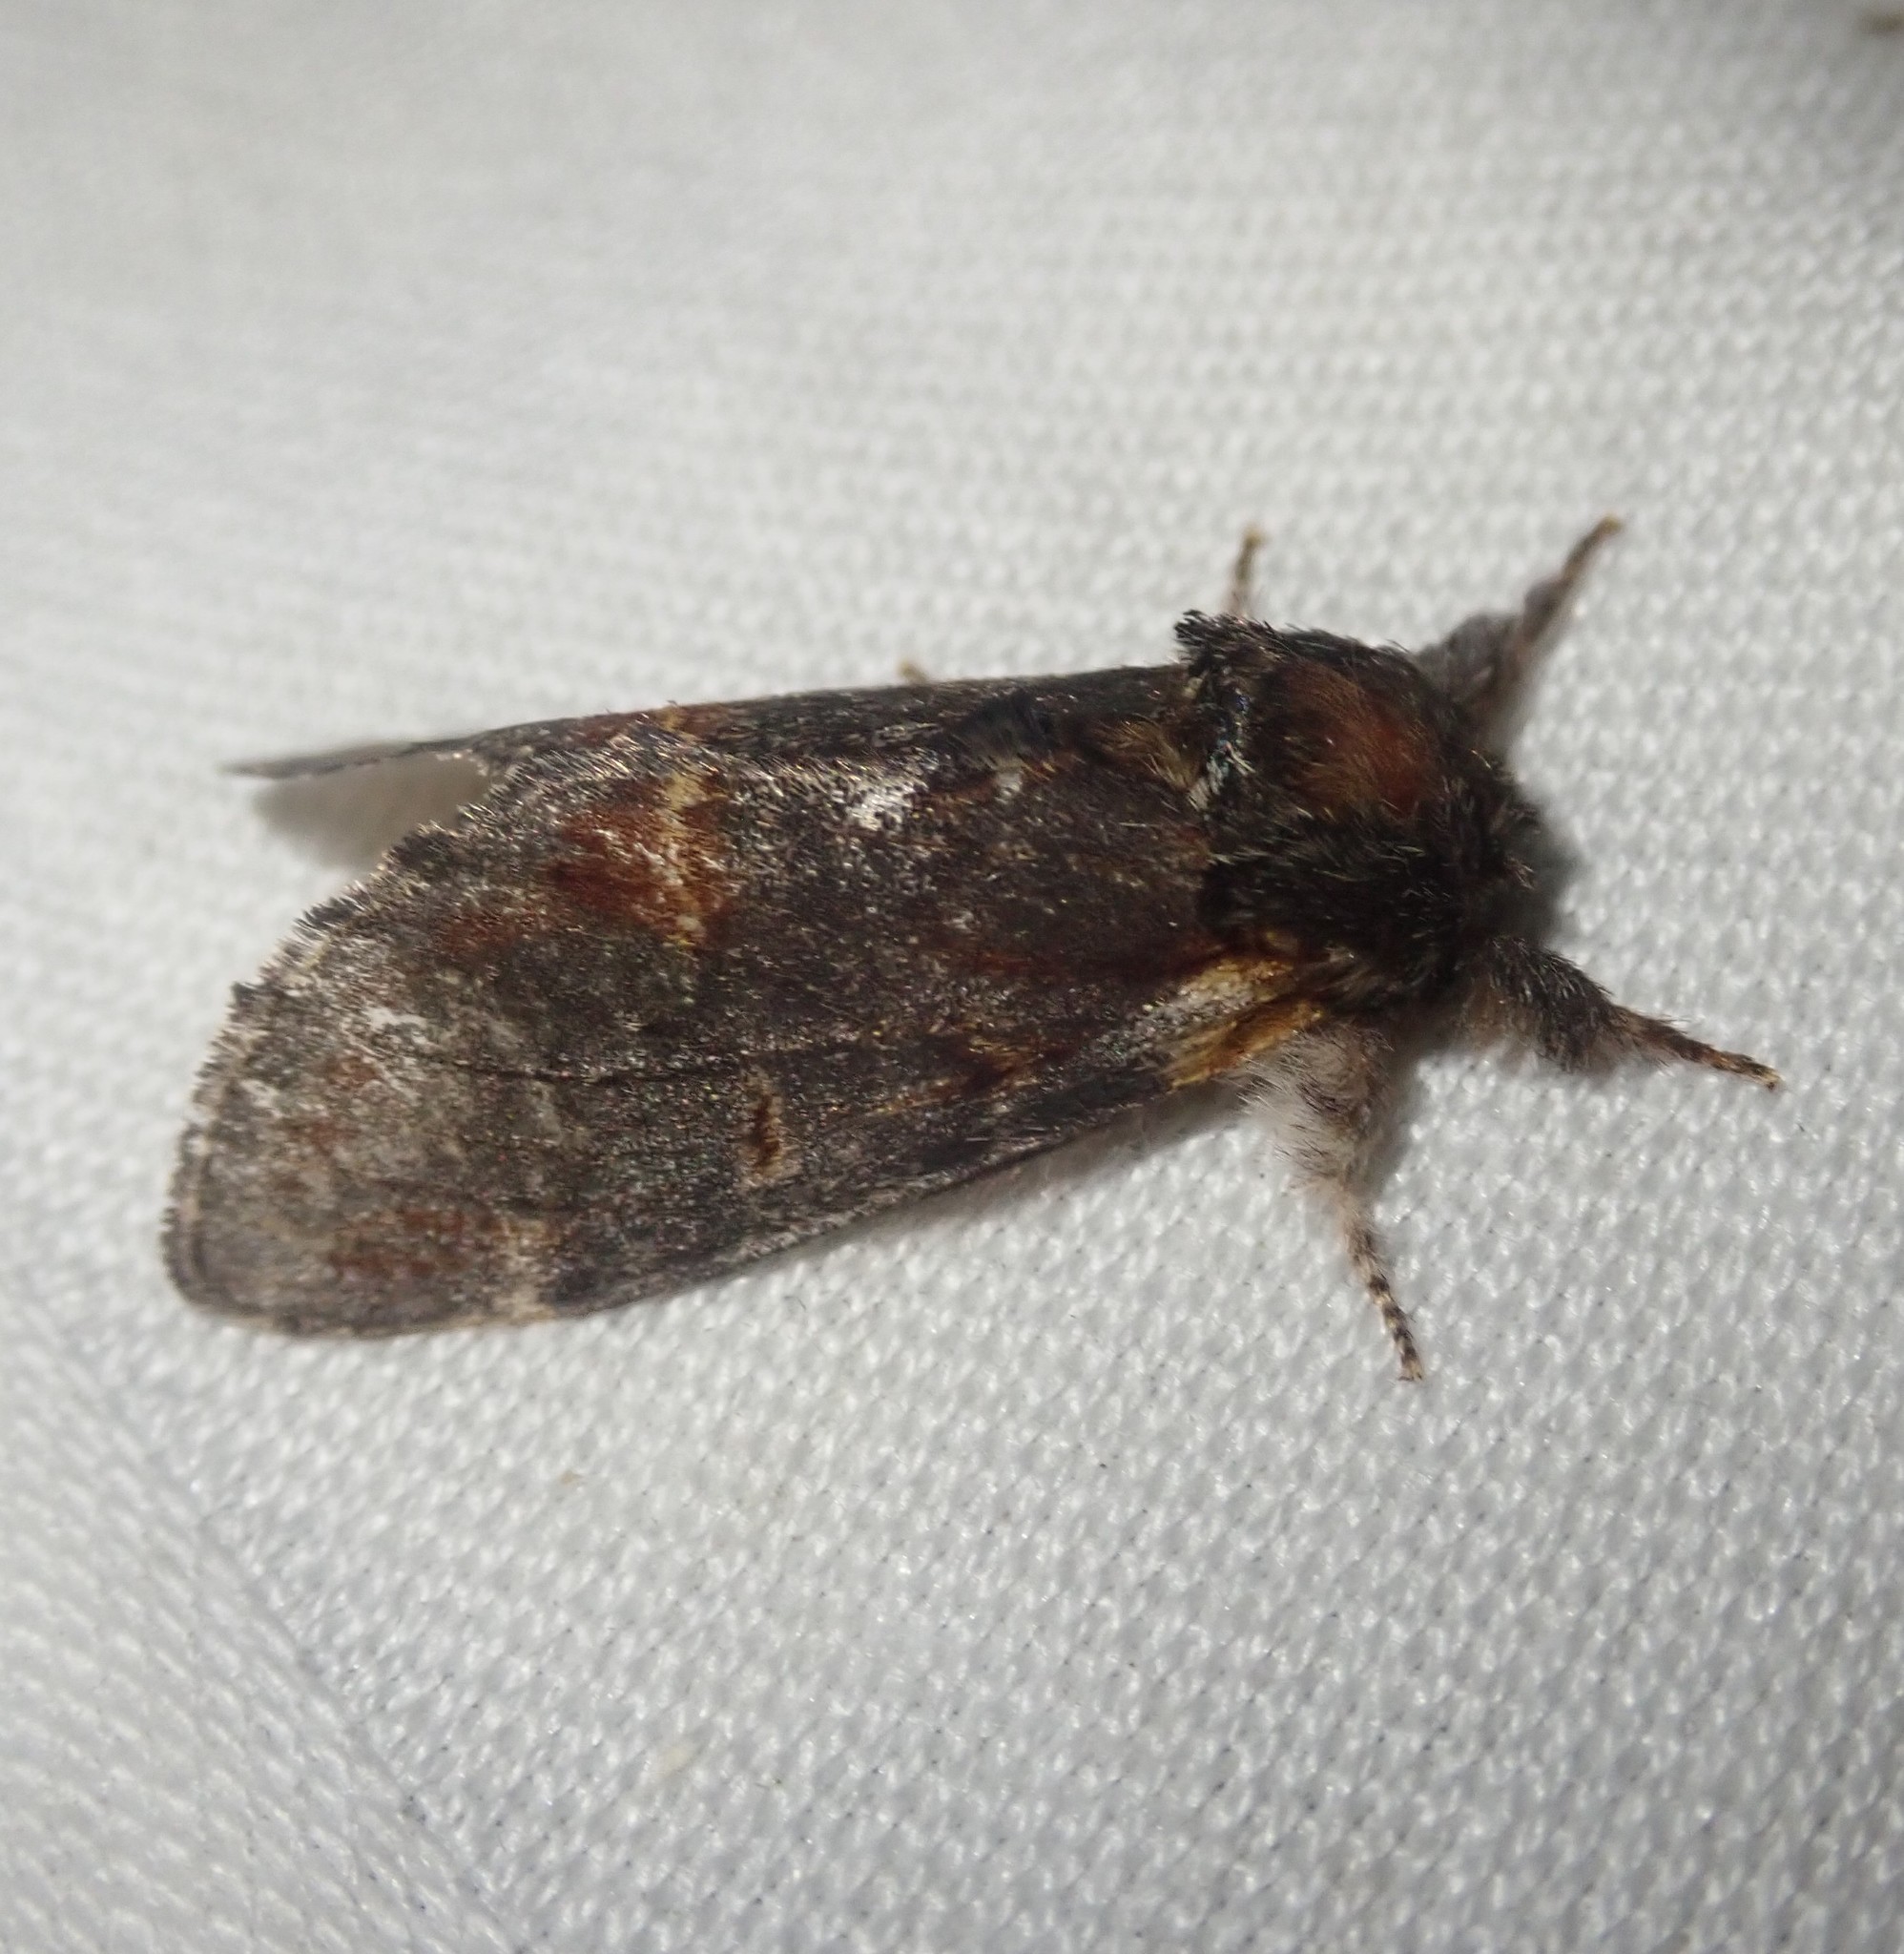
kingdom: Animalia
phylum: Arthropoda
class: Insecta
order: Lepidoptera
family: Notodontidae
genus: Notodonta
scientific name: Notodonta dromedarius
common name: Iron prominent
